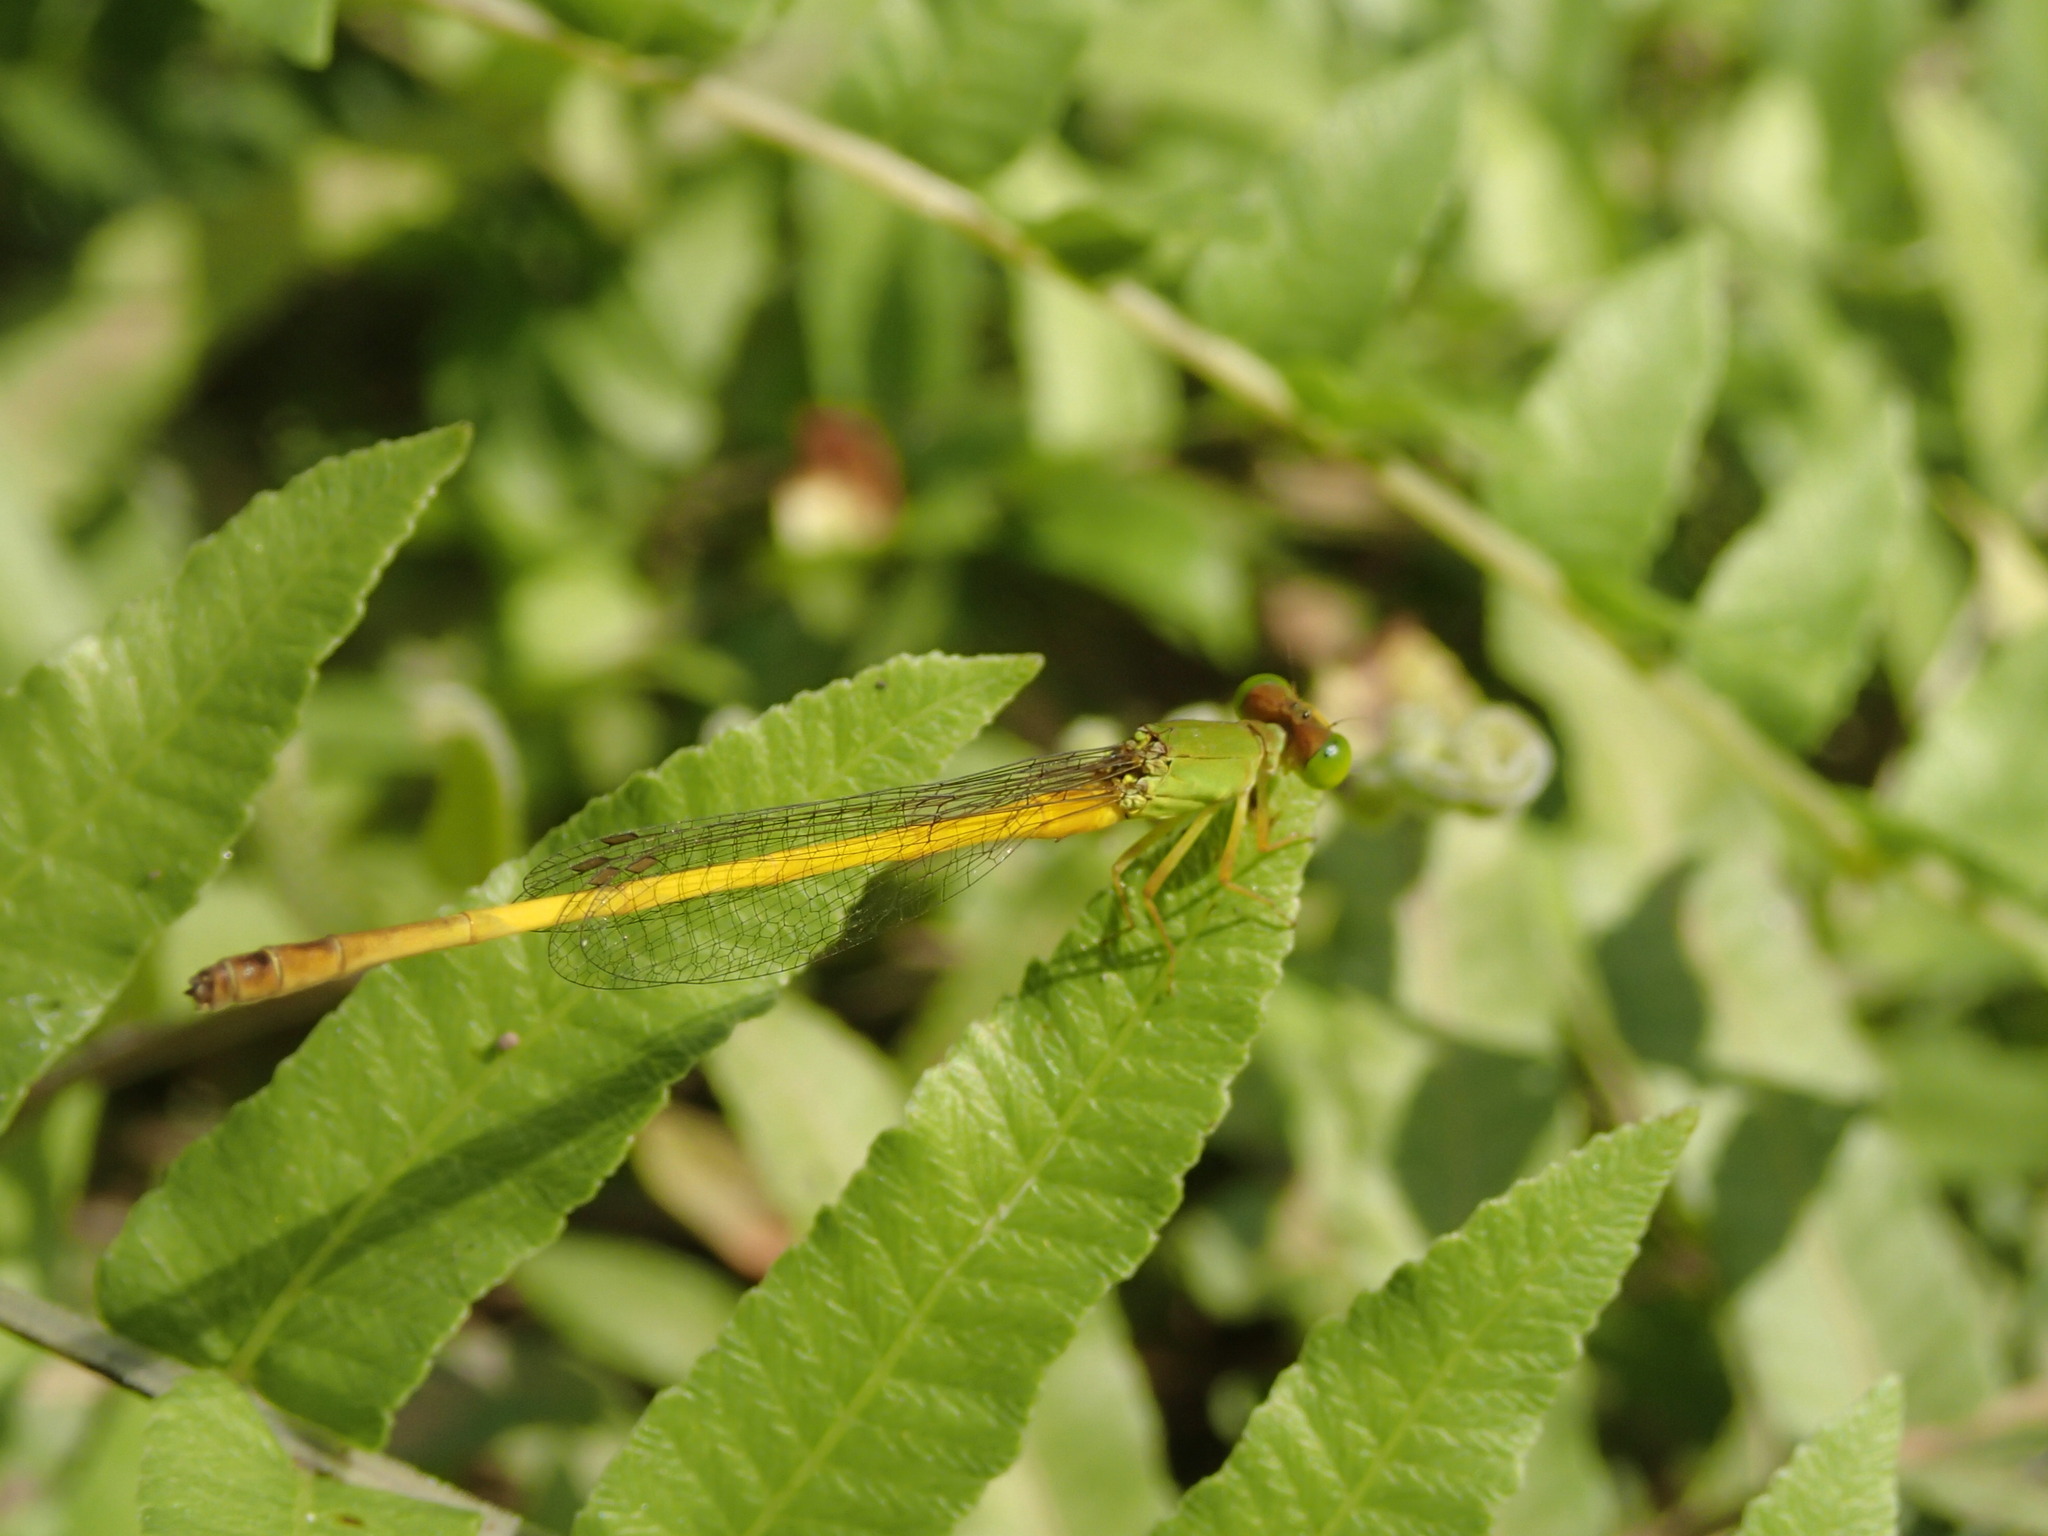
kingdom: Animalia
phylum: Arthropoda
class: Insecta
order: Odonata
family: Coenagrionidae
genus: Ceriagrion
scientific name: Ceriagrion coromandelianum
